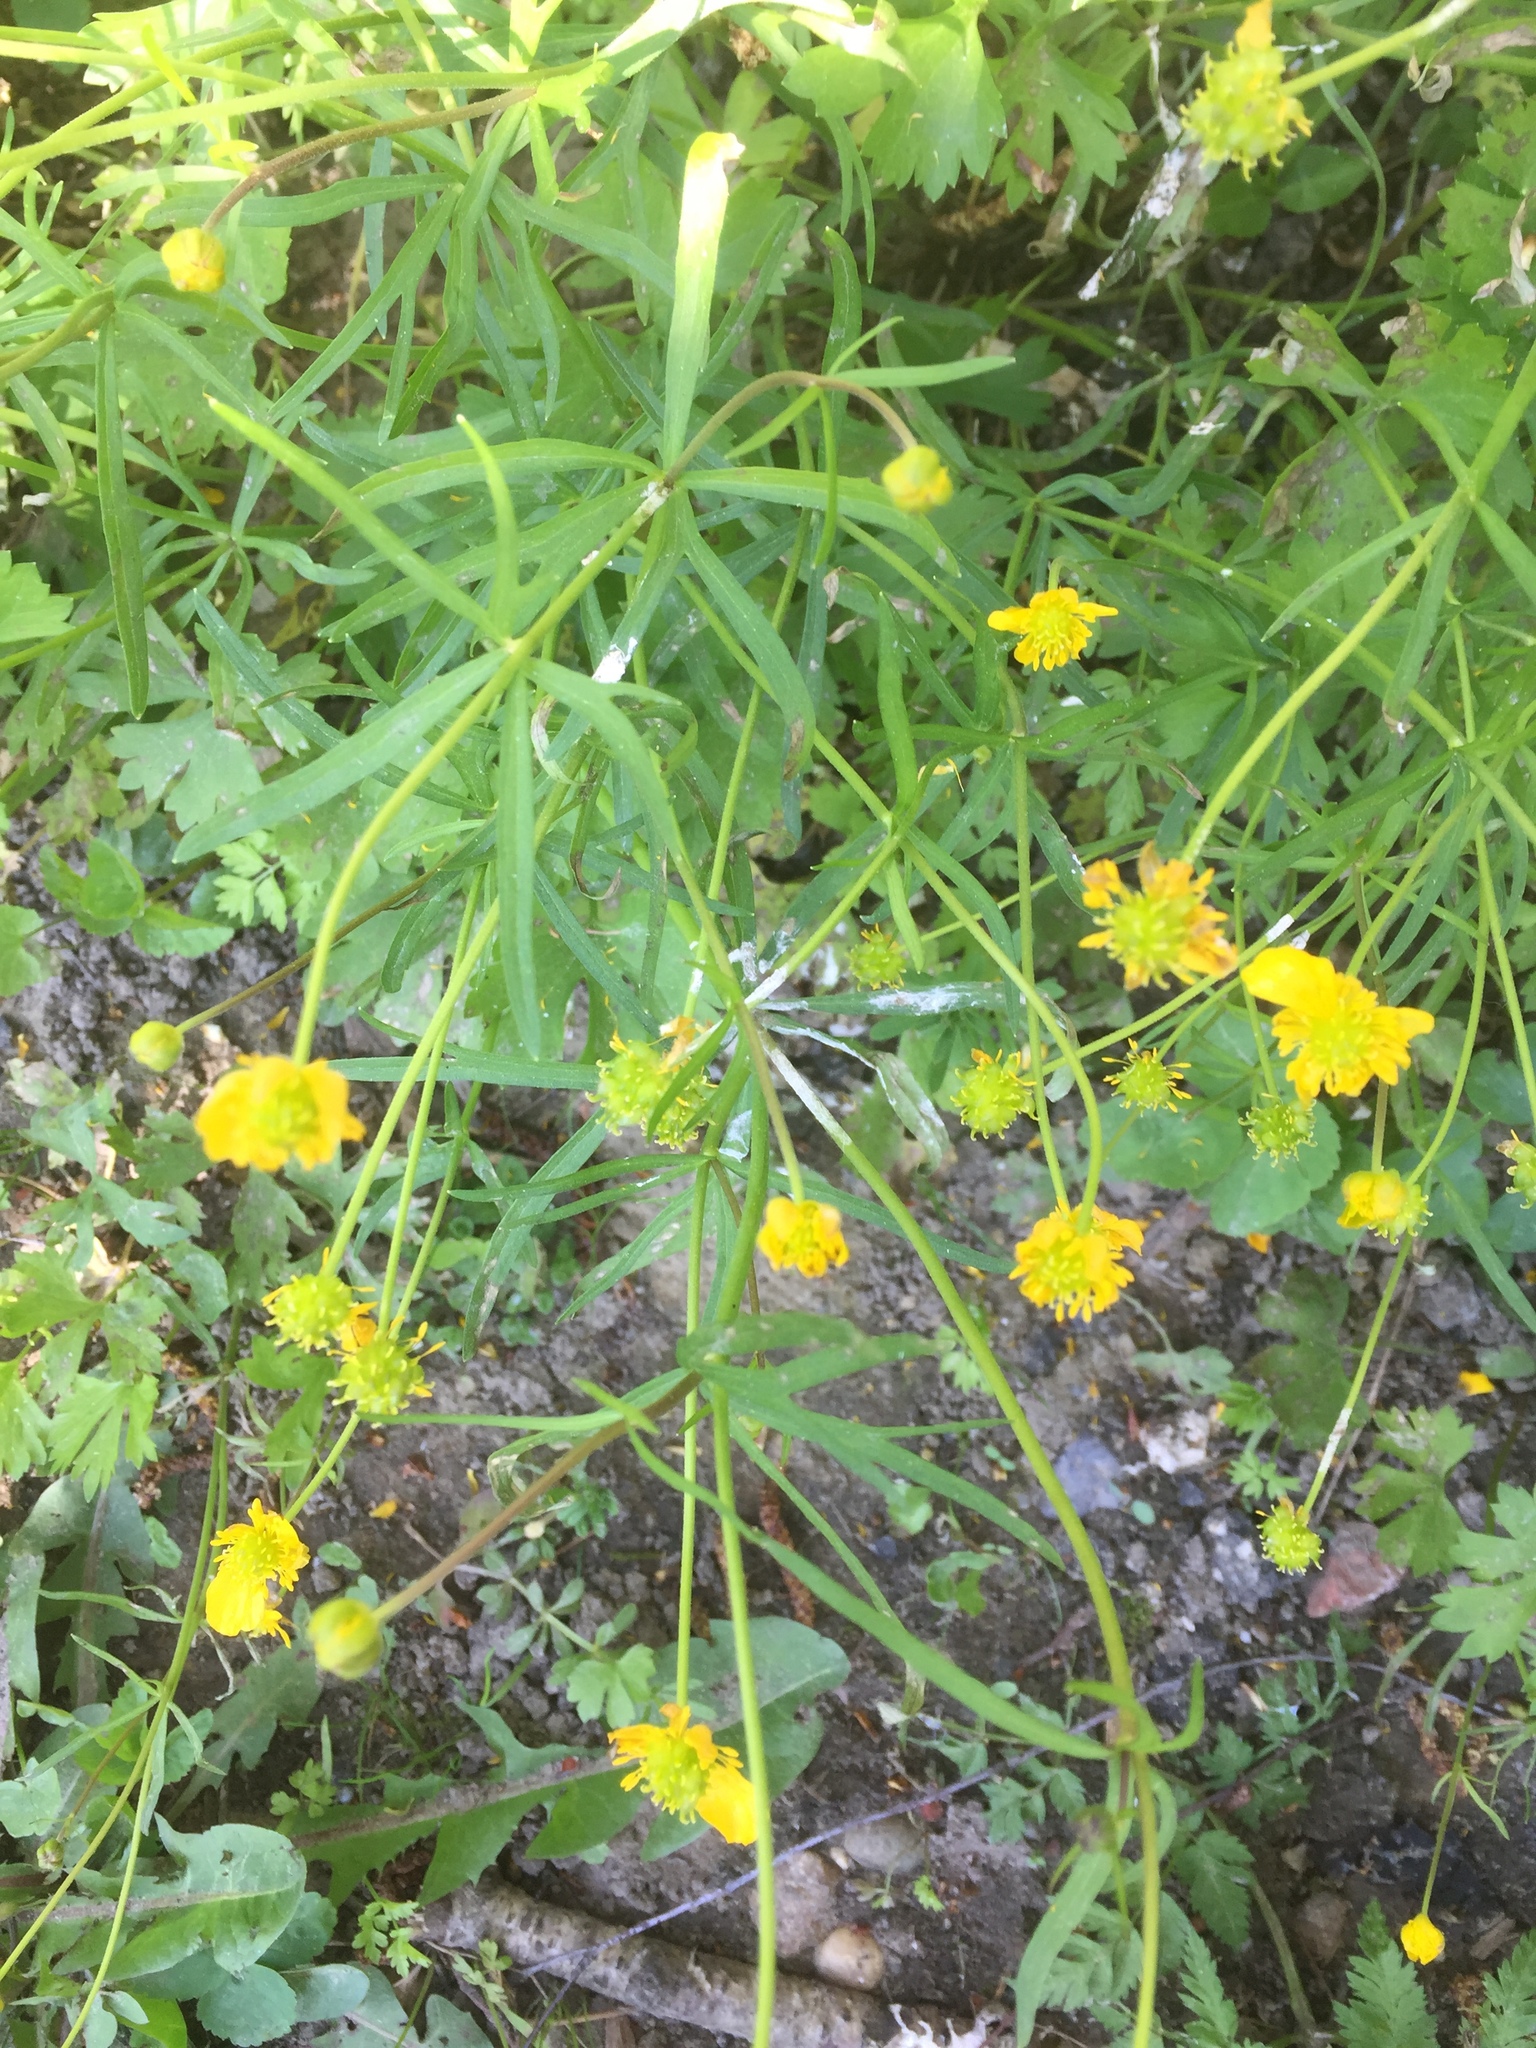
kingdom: Plantae
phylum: Tracheophyta
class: Magnoliopsida
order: Ranunculales
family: Ranunculaceae
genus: Ranunculus
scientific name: Ranunculus auricomus
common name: Goldilocks buttercup
